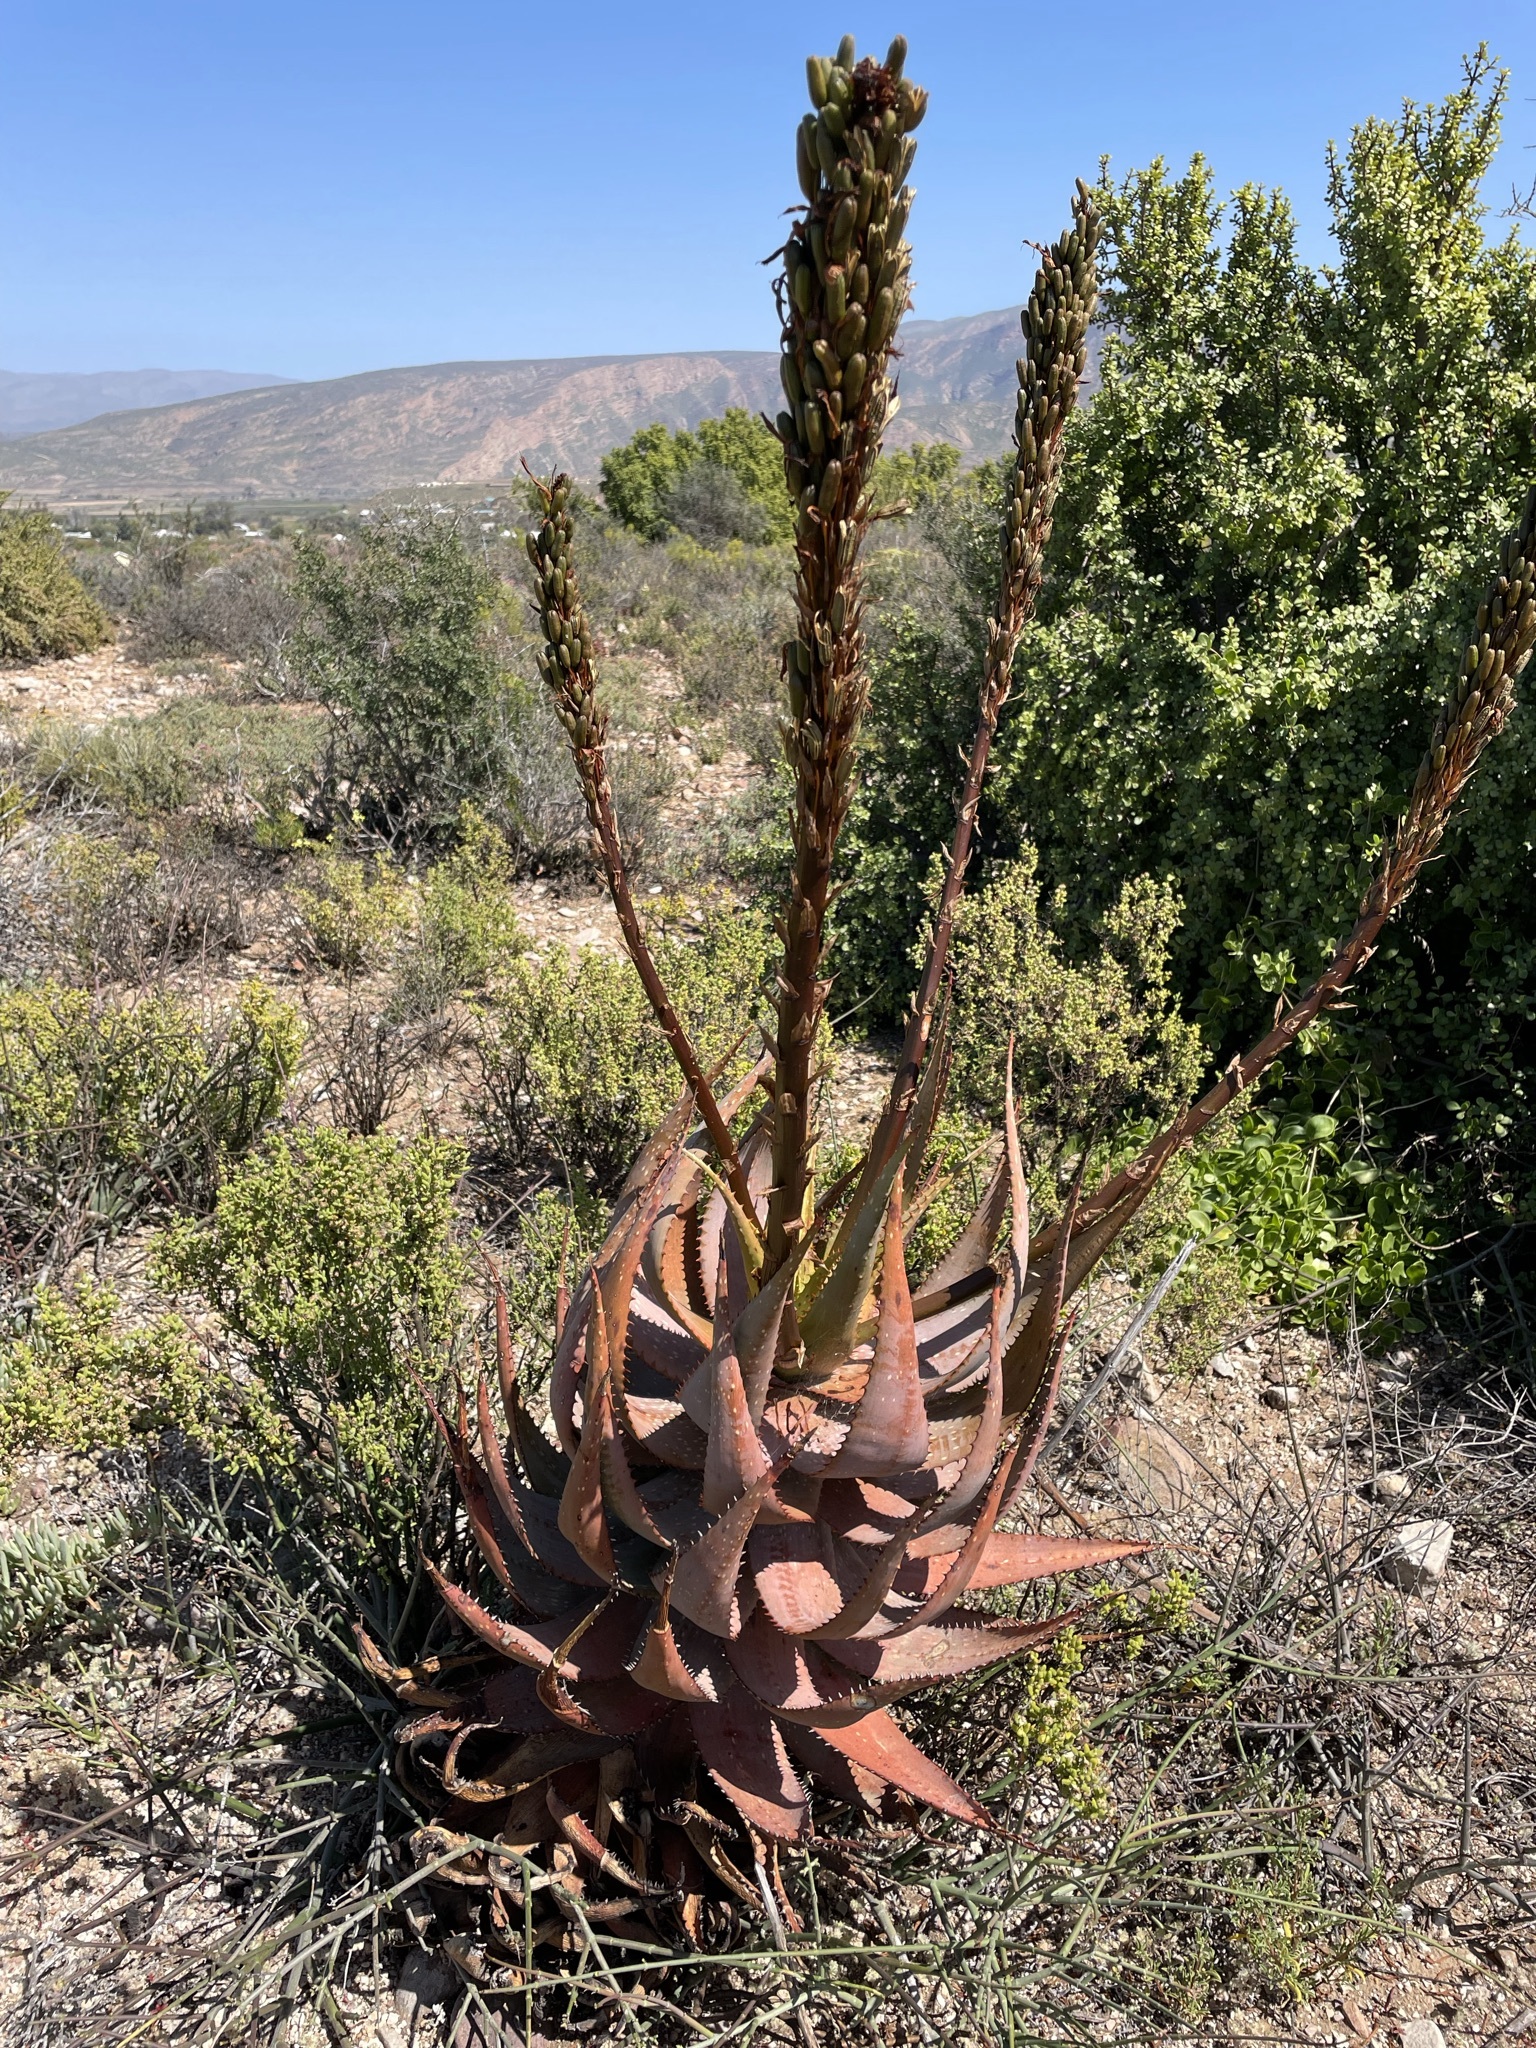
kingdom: Plantae
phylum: Tracheophyta
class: Liliopsida
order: Asparagales
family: Asphodelaceae
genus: Aloe
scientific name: Aloe microstigma
